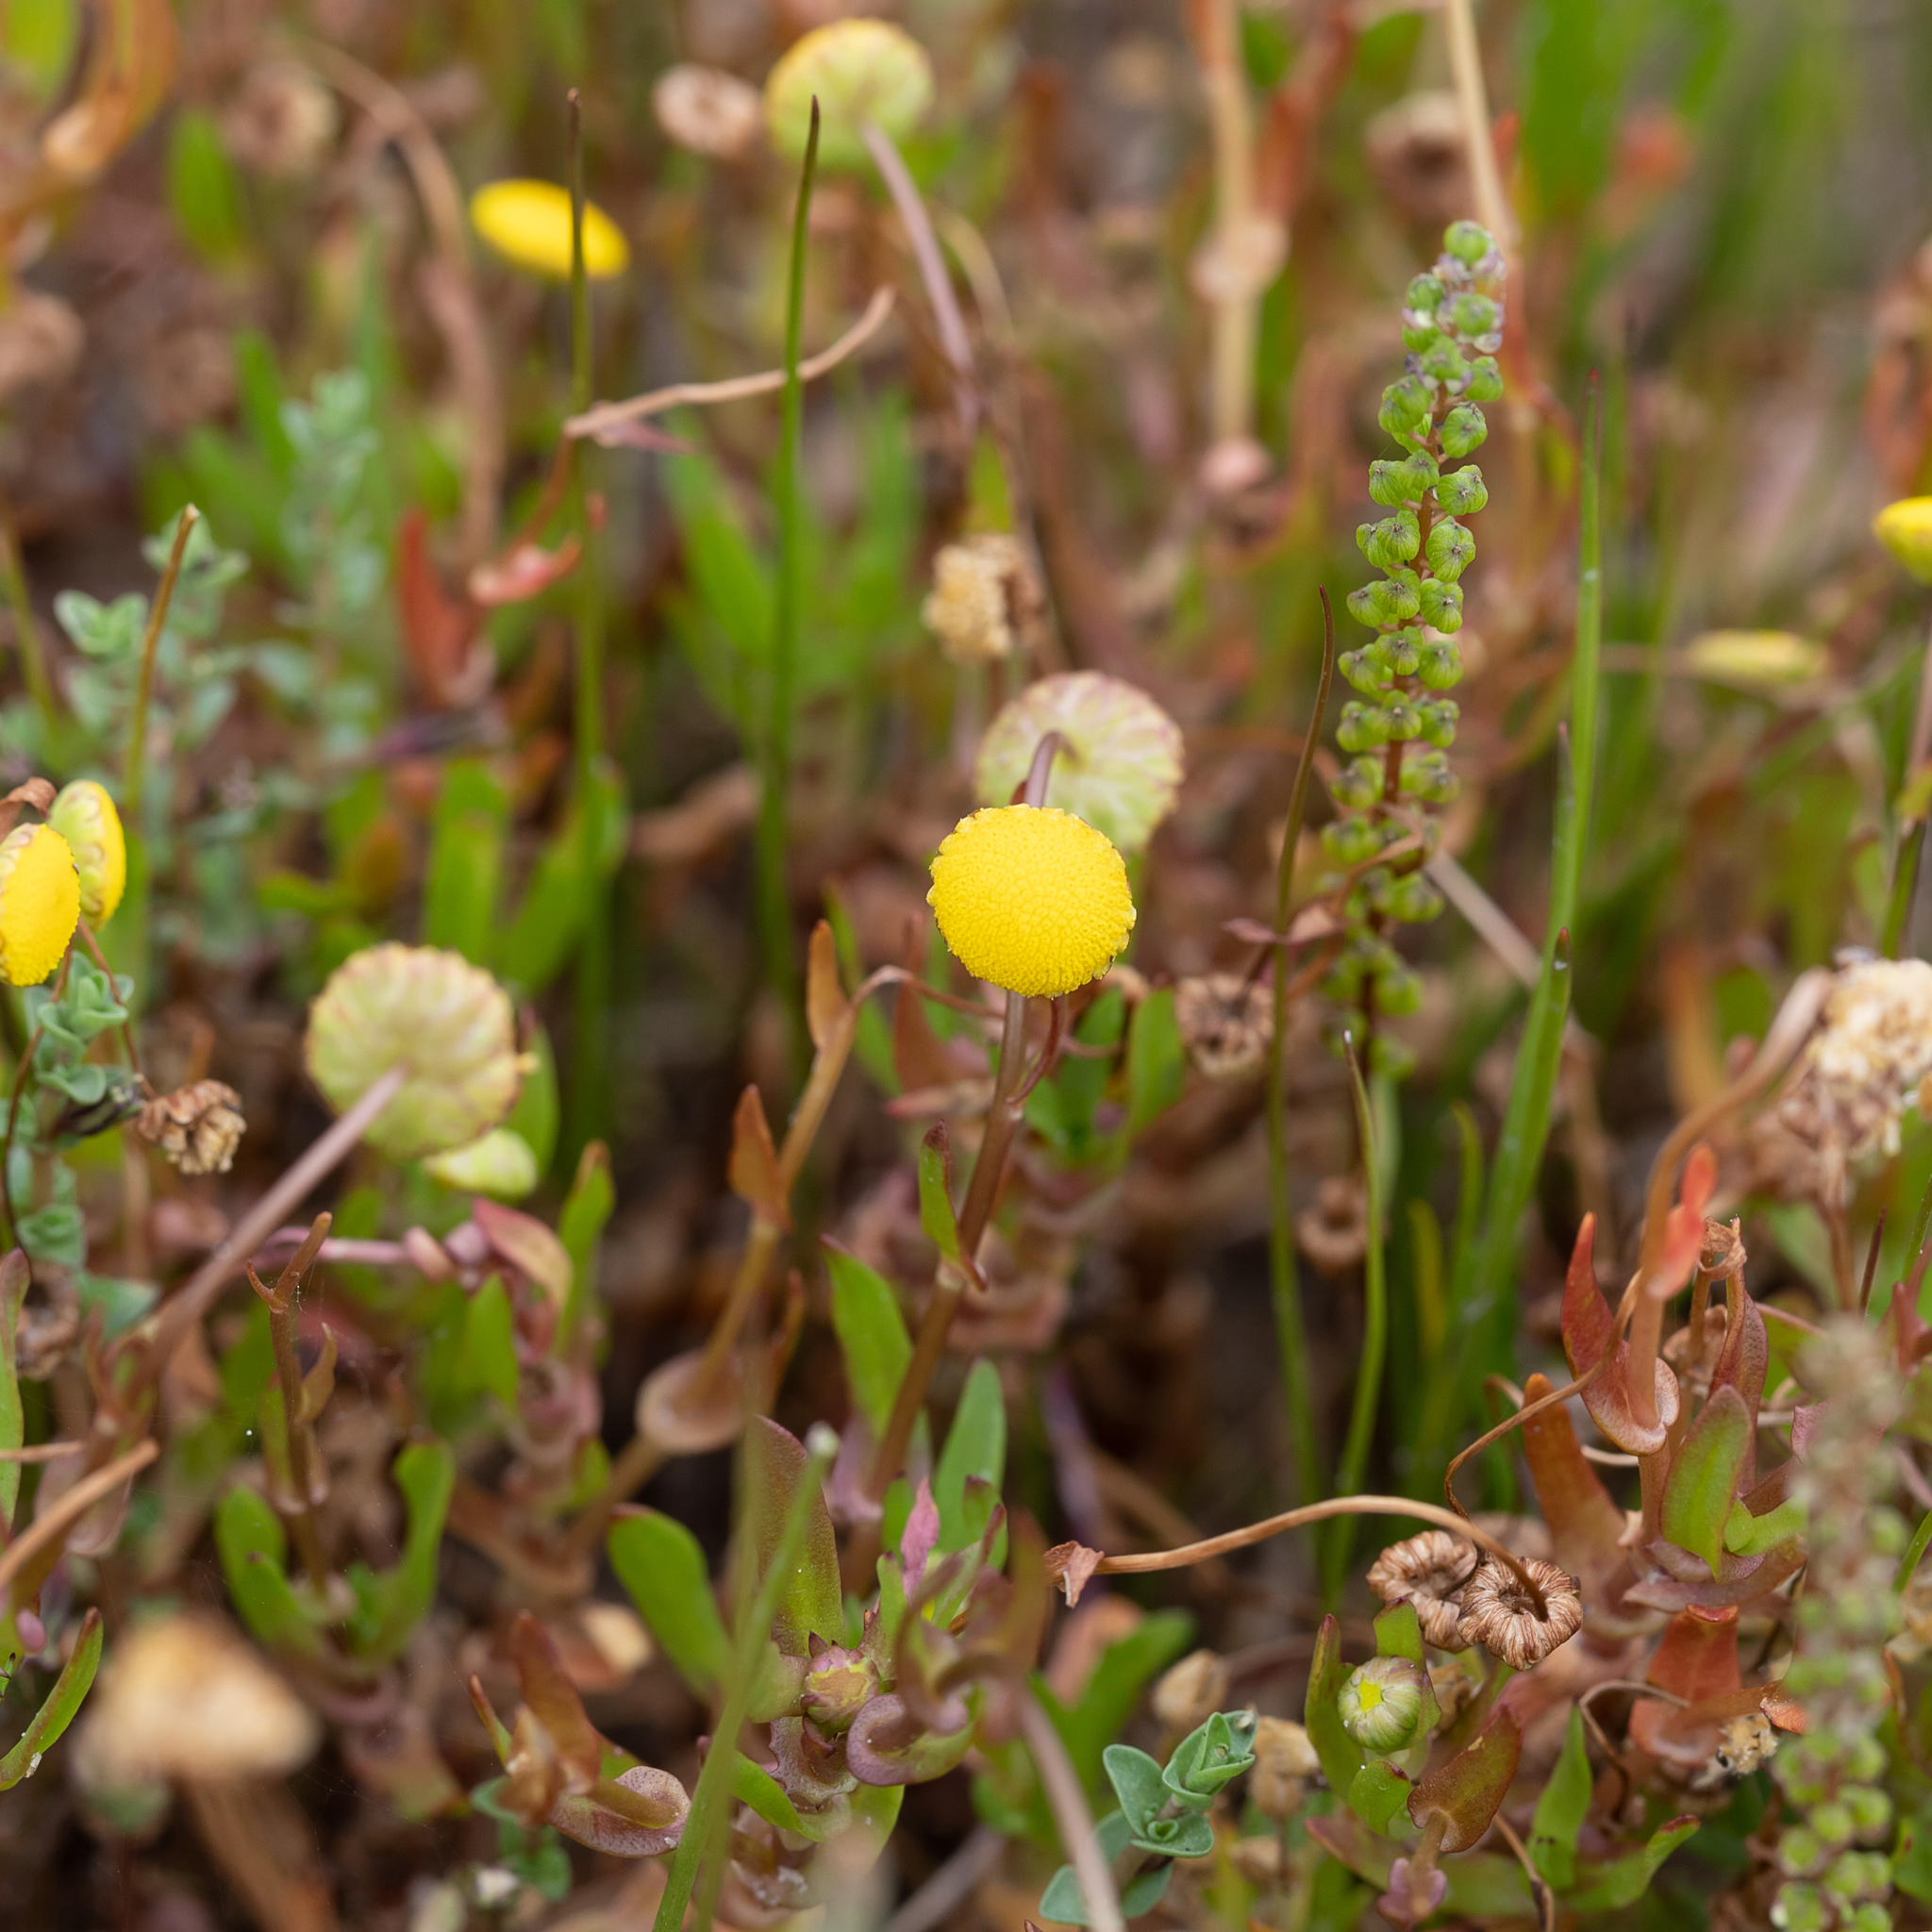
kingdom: Plantae
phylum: Tracheophyta
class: Magnoliopsida
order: Asterales
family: Asteraceae
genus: Cotula
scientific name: Cotula coronopifolia
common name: Buttonweed
